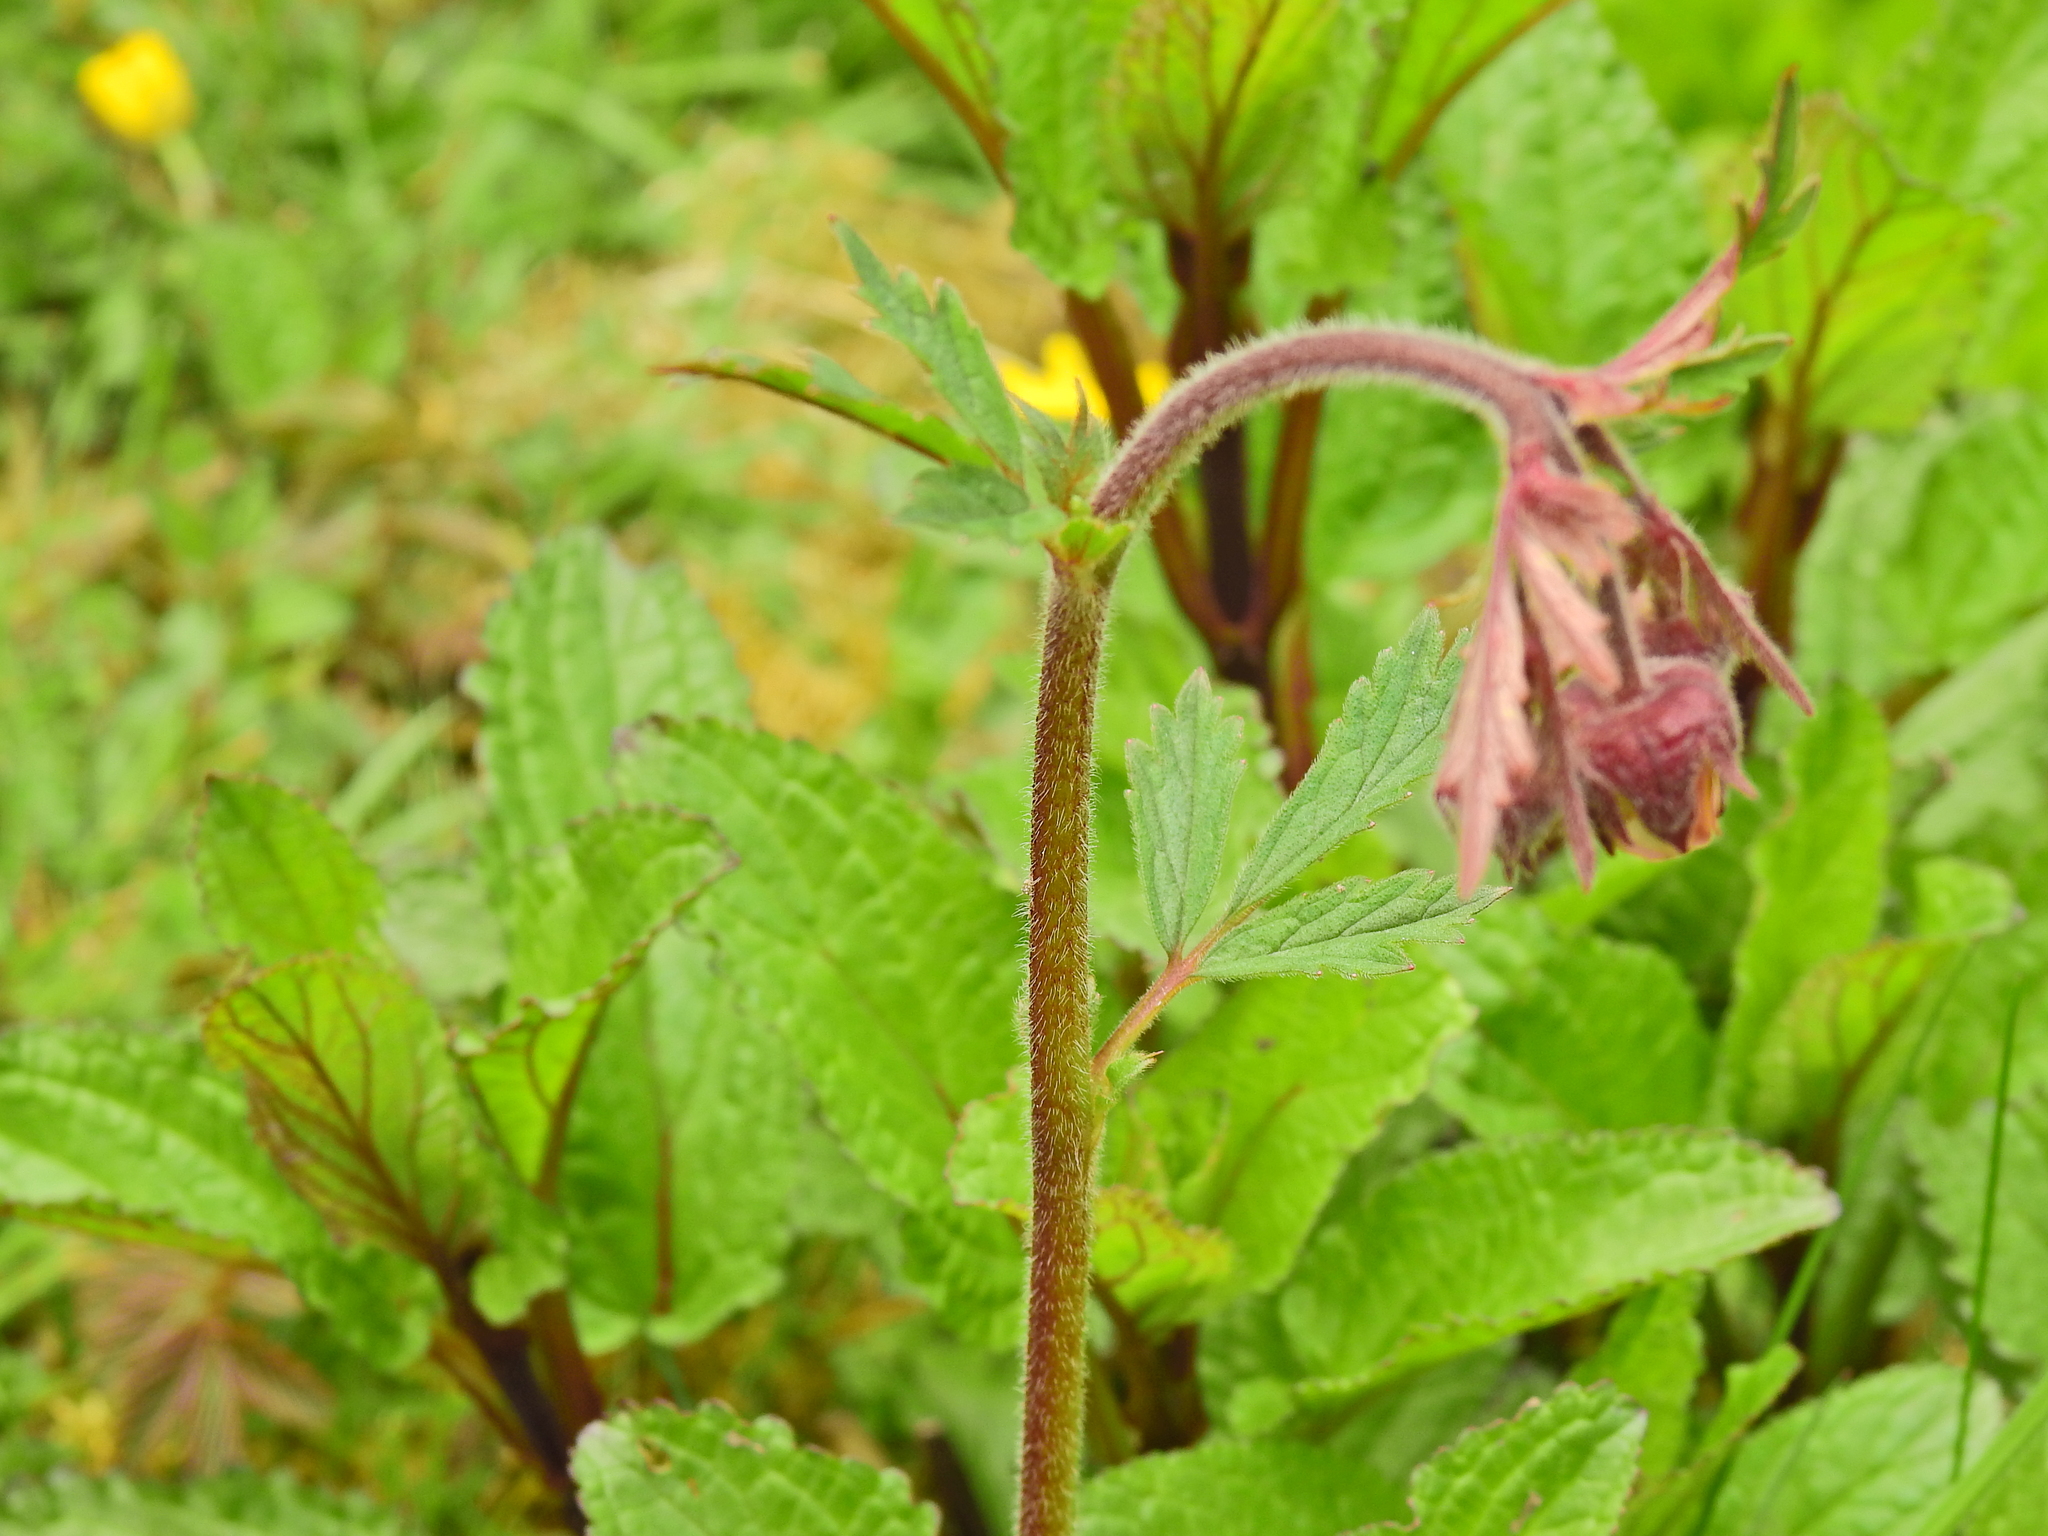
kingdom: Plantae
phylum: Tracheophyta
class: Magnoliopsida
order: Rosales
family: Rosaceae
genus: Geum
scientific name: Geum rivale
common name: Water avens
